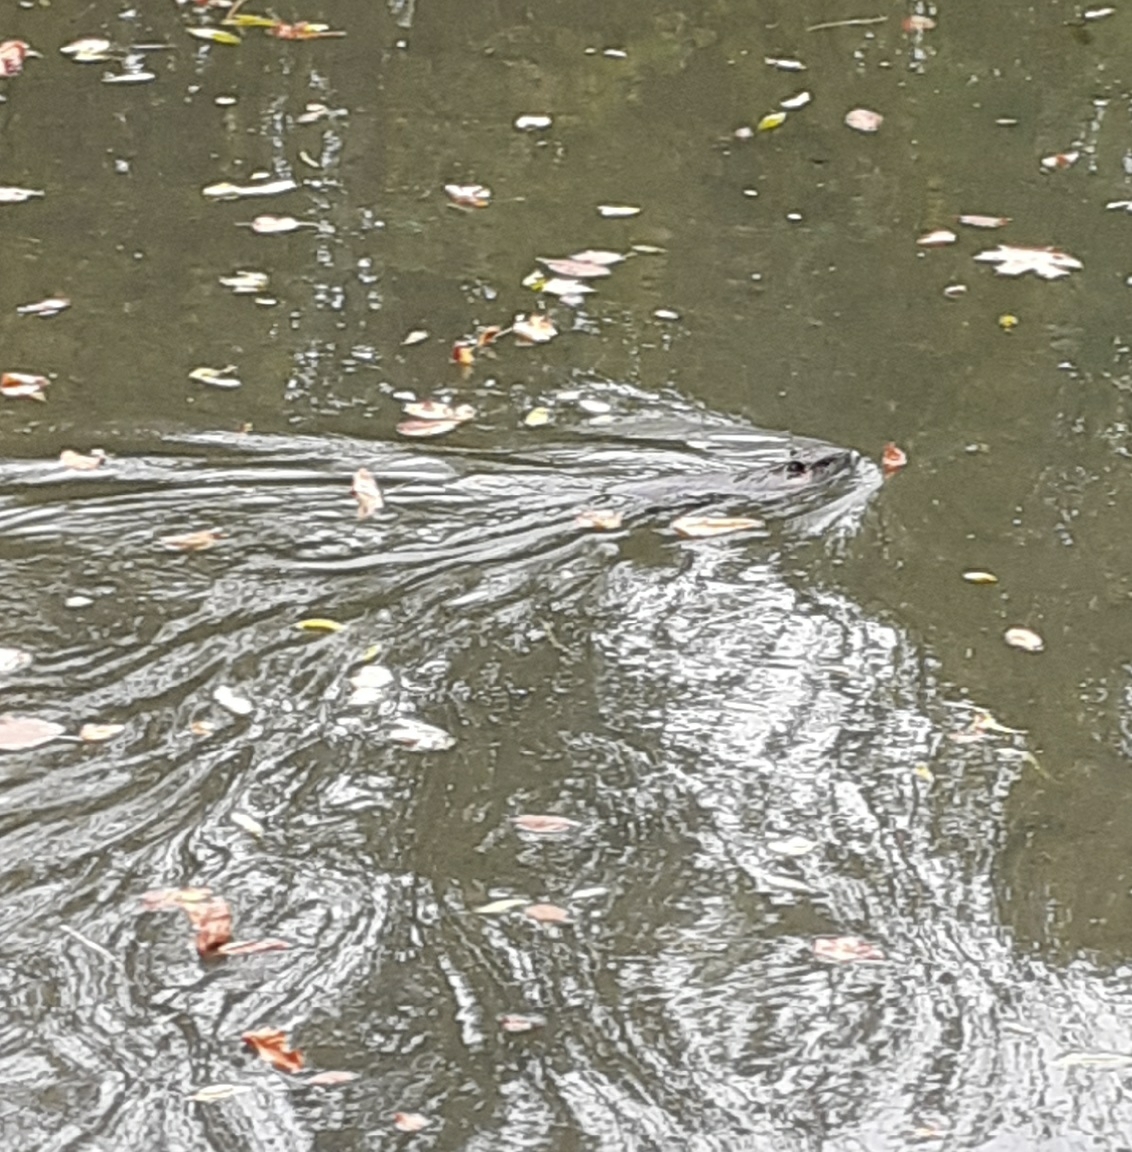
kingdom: Animalia
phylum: Chordata
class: Mammalia
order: Rodentia
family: Myocastoridae
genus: Myocastor
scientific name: Myocastor coypus
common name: Coypu
